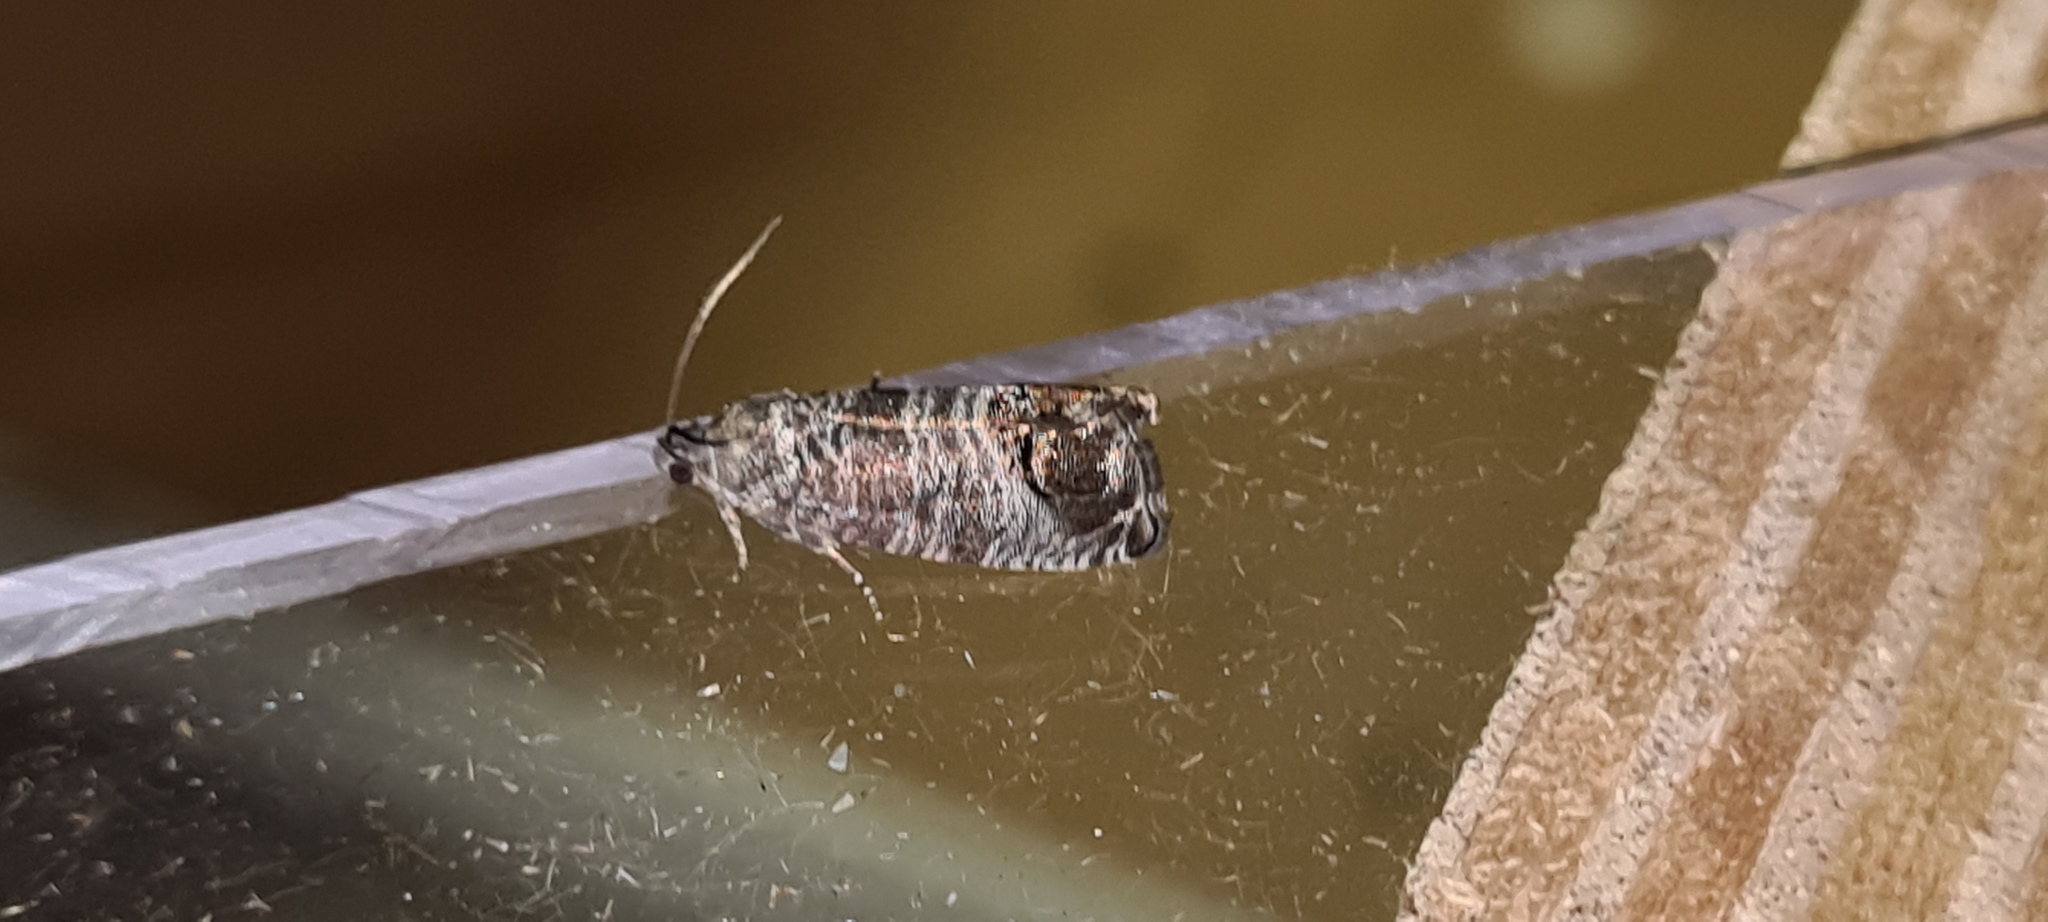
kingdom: Animalia
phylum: Arthropoda
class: Insecta
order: Lepidoptera
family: Tortricidae
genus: Cydia
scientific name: Cydia pomonella
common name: Codling moth
